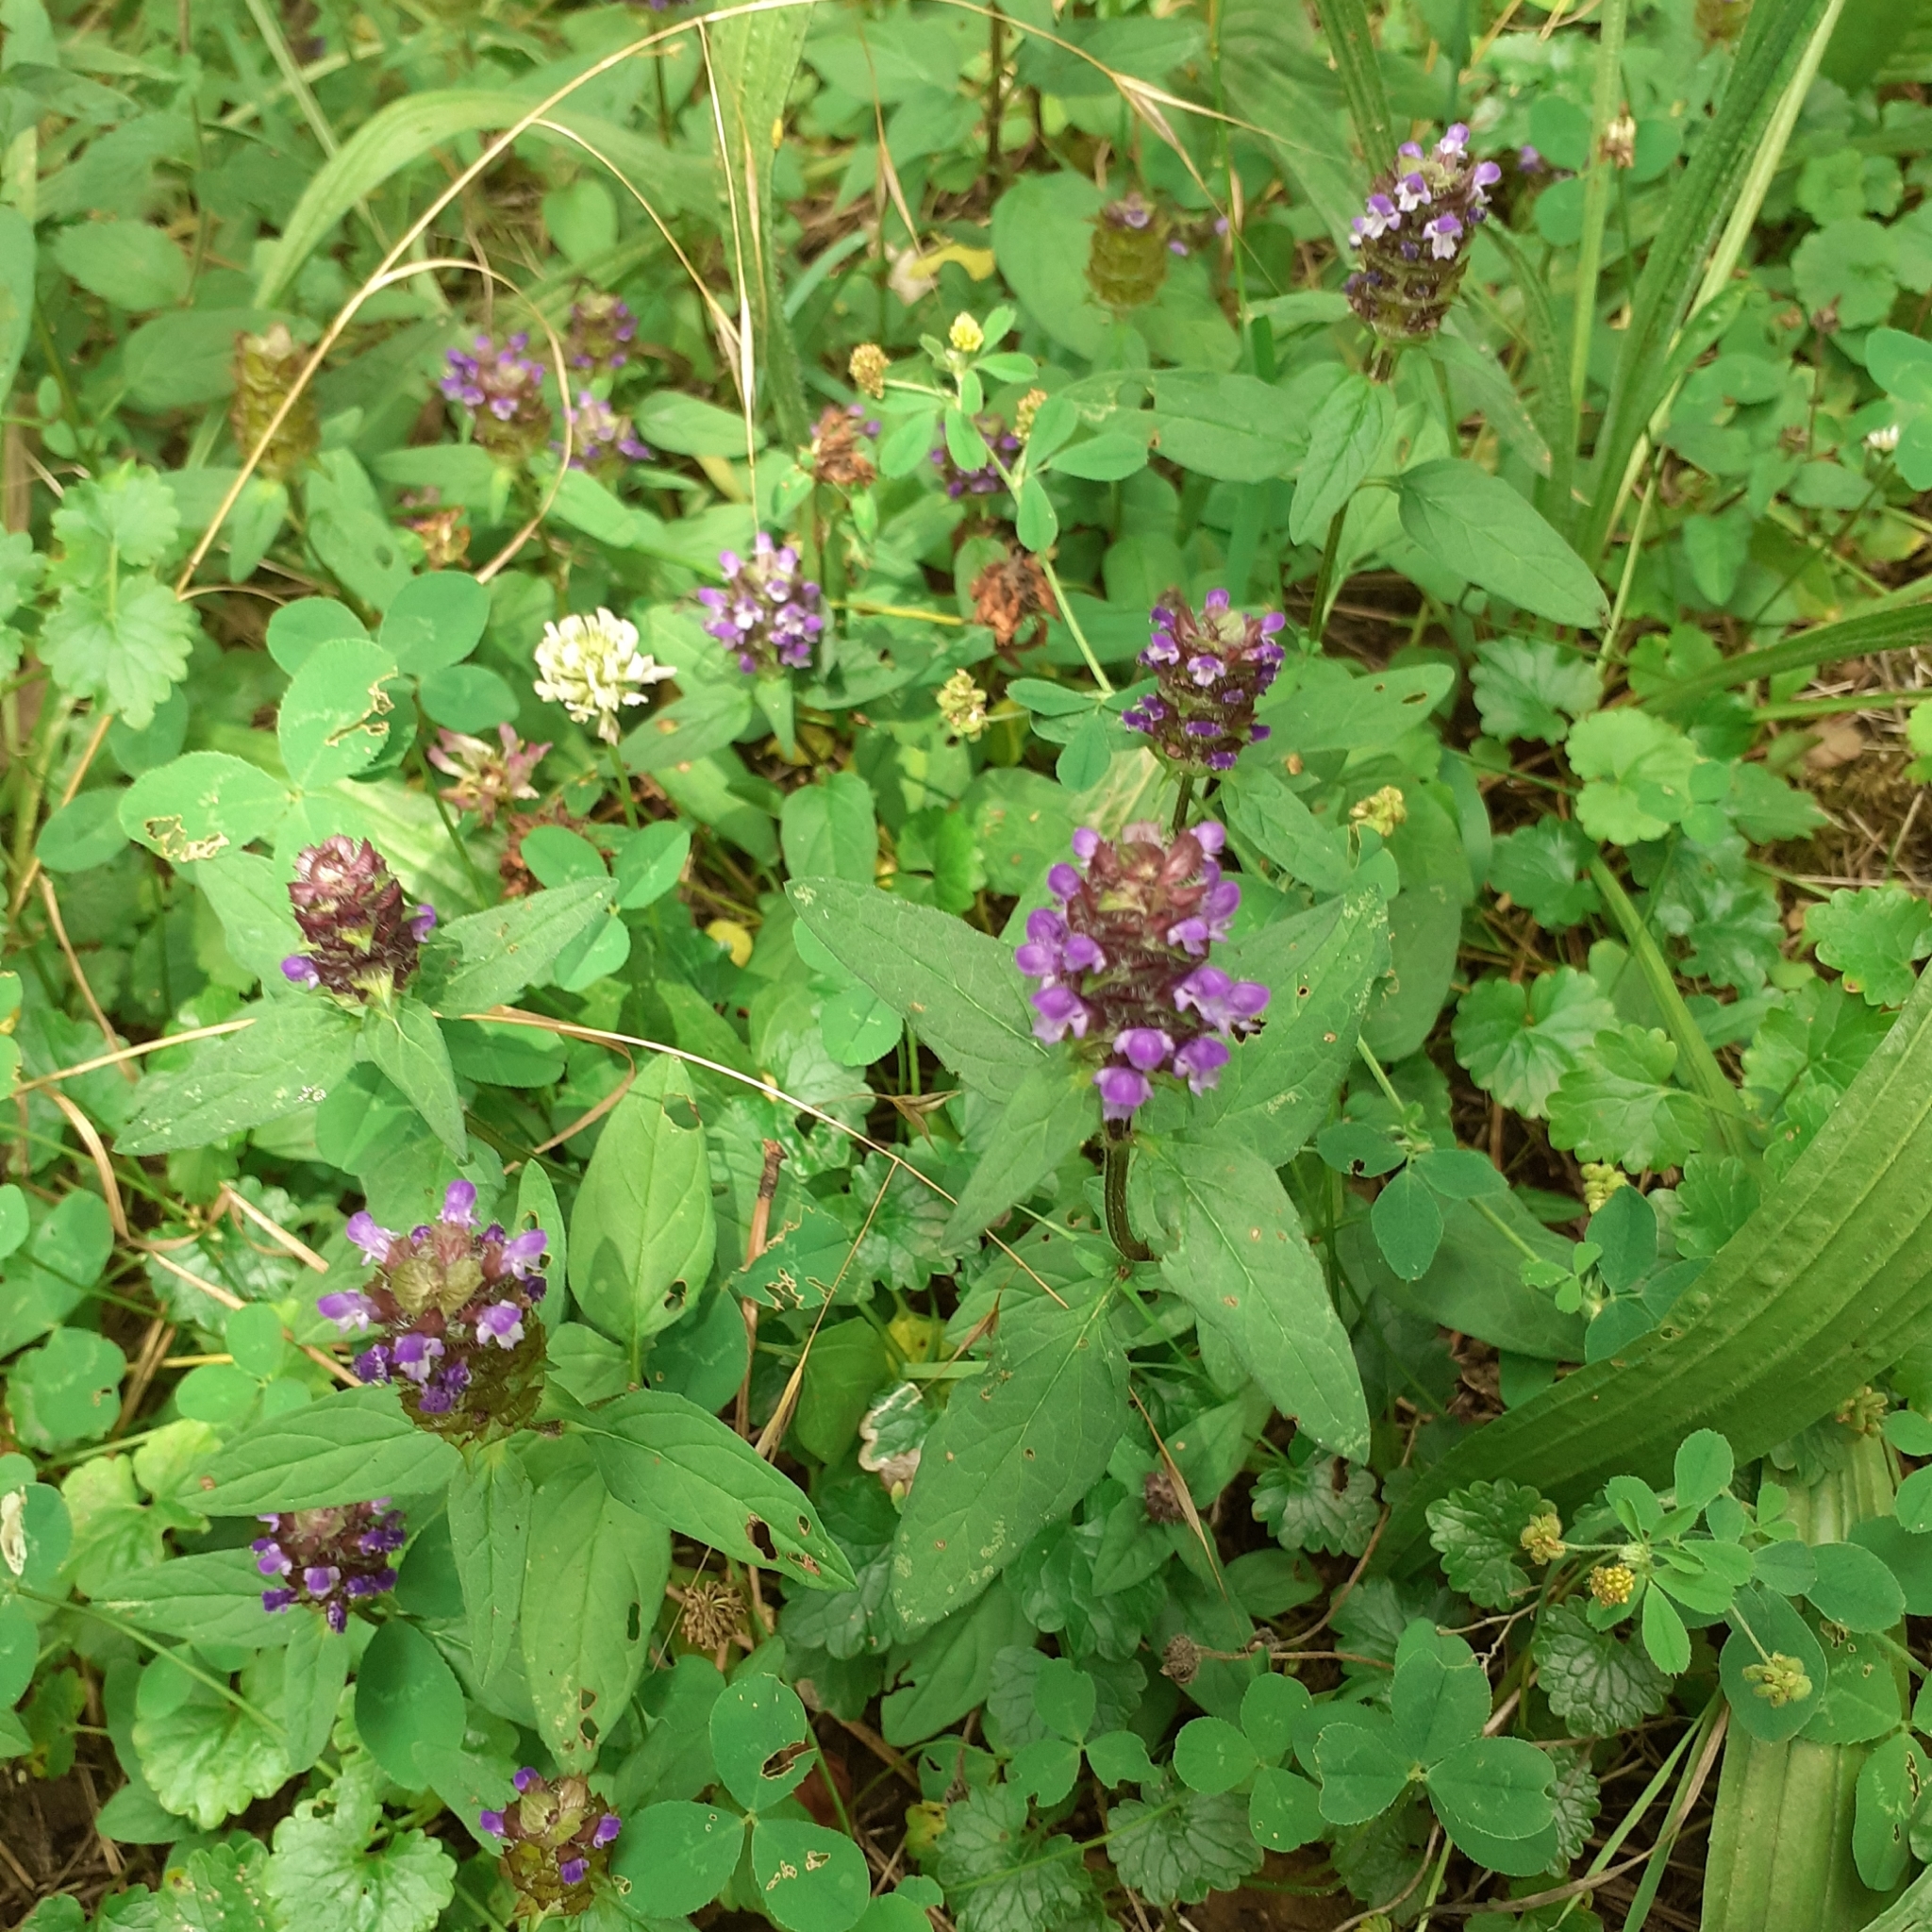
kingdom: Plantae
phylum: Tracheophyta
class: Magnoliopsida
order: Lamiales
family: Lamiaceae
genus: Prunella
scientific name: Prunella vulgaris
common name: Heal-all
